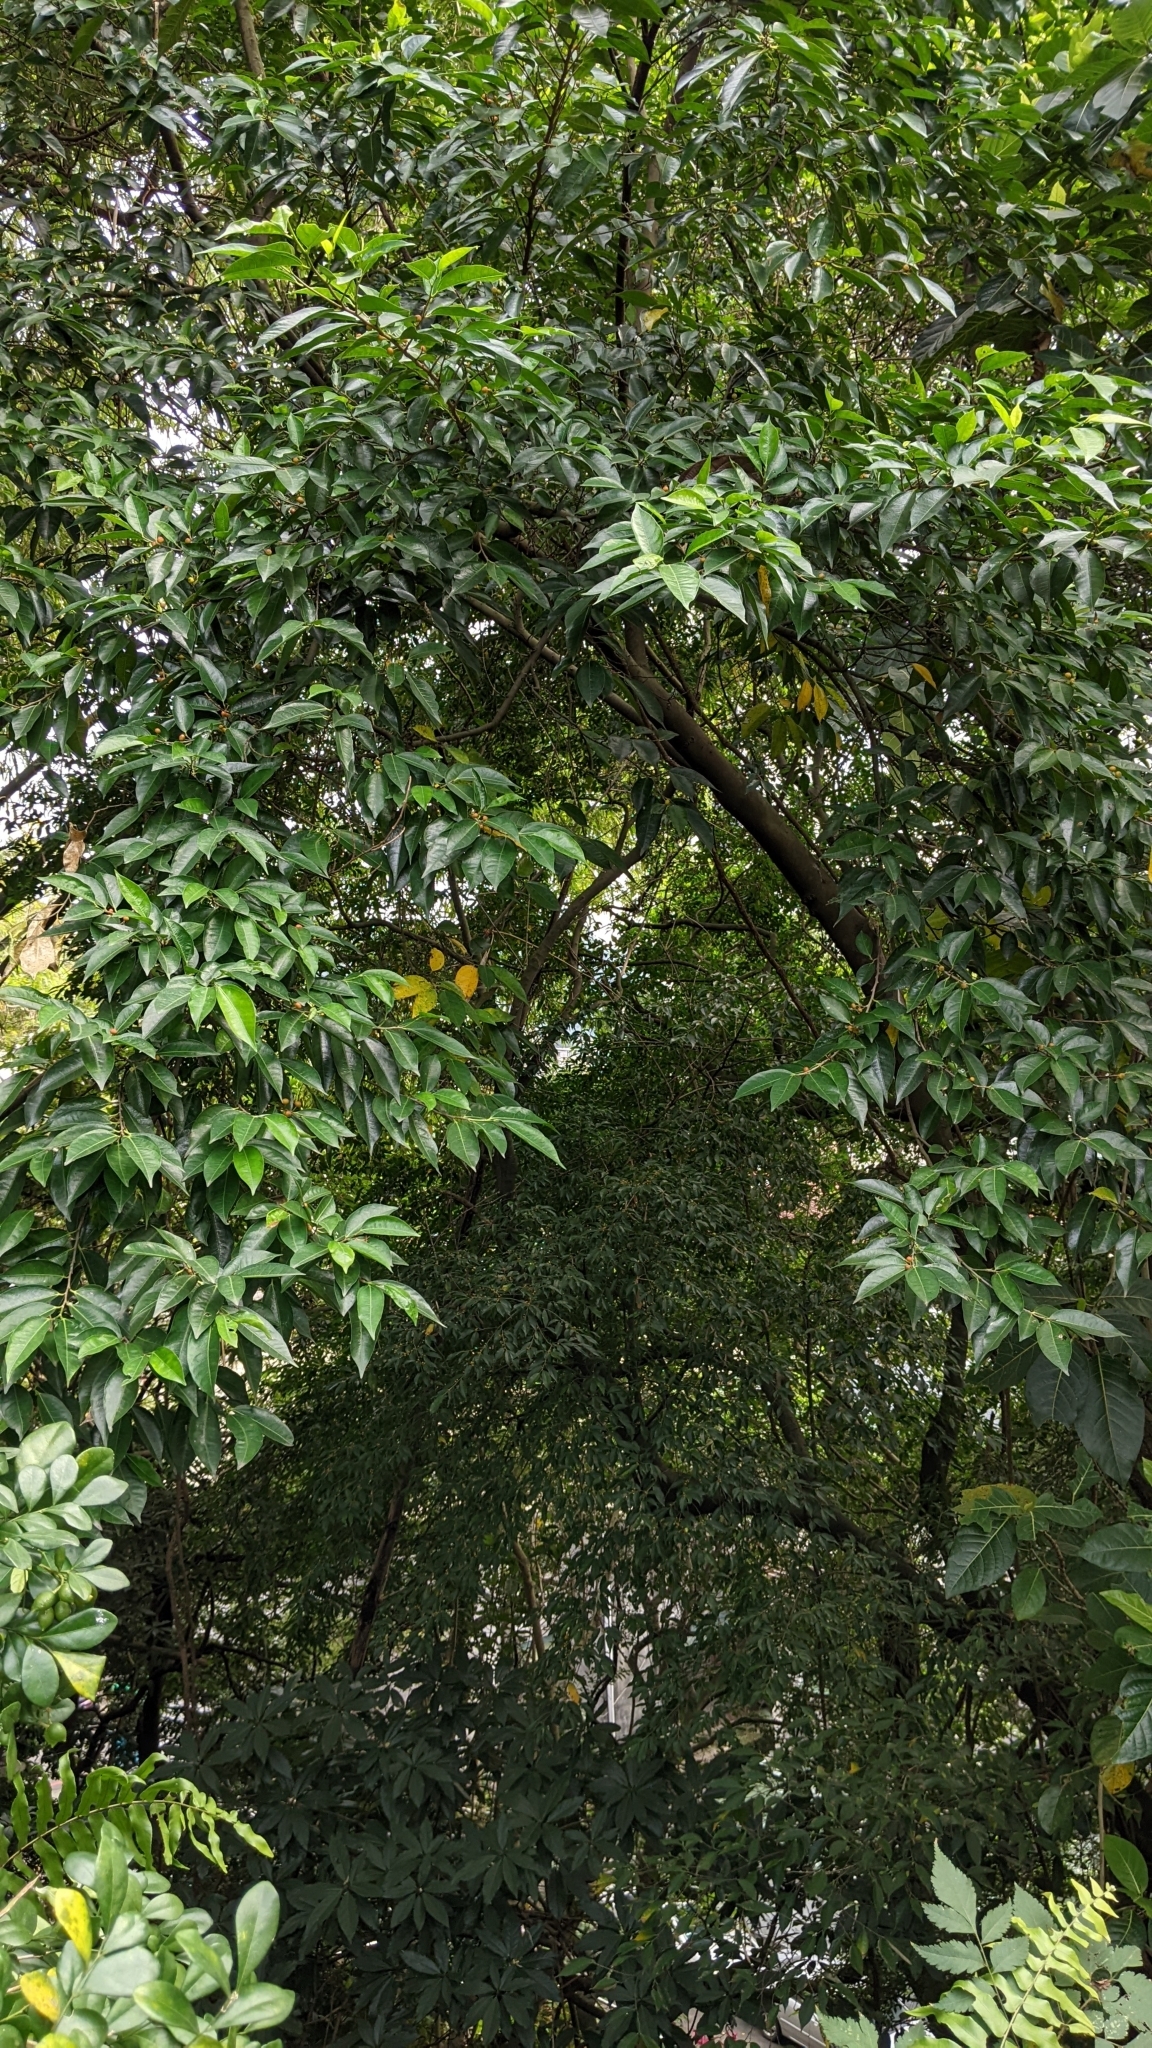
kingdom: Plantae
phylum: Tracheophyta
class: Magnoliopsida
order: Rosales
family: Moraceae
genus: Ficus
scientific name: Ficus ampelos
